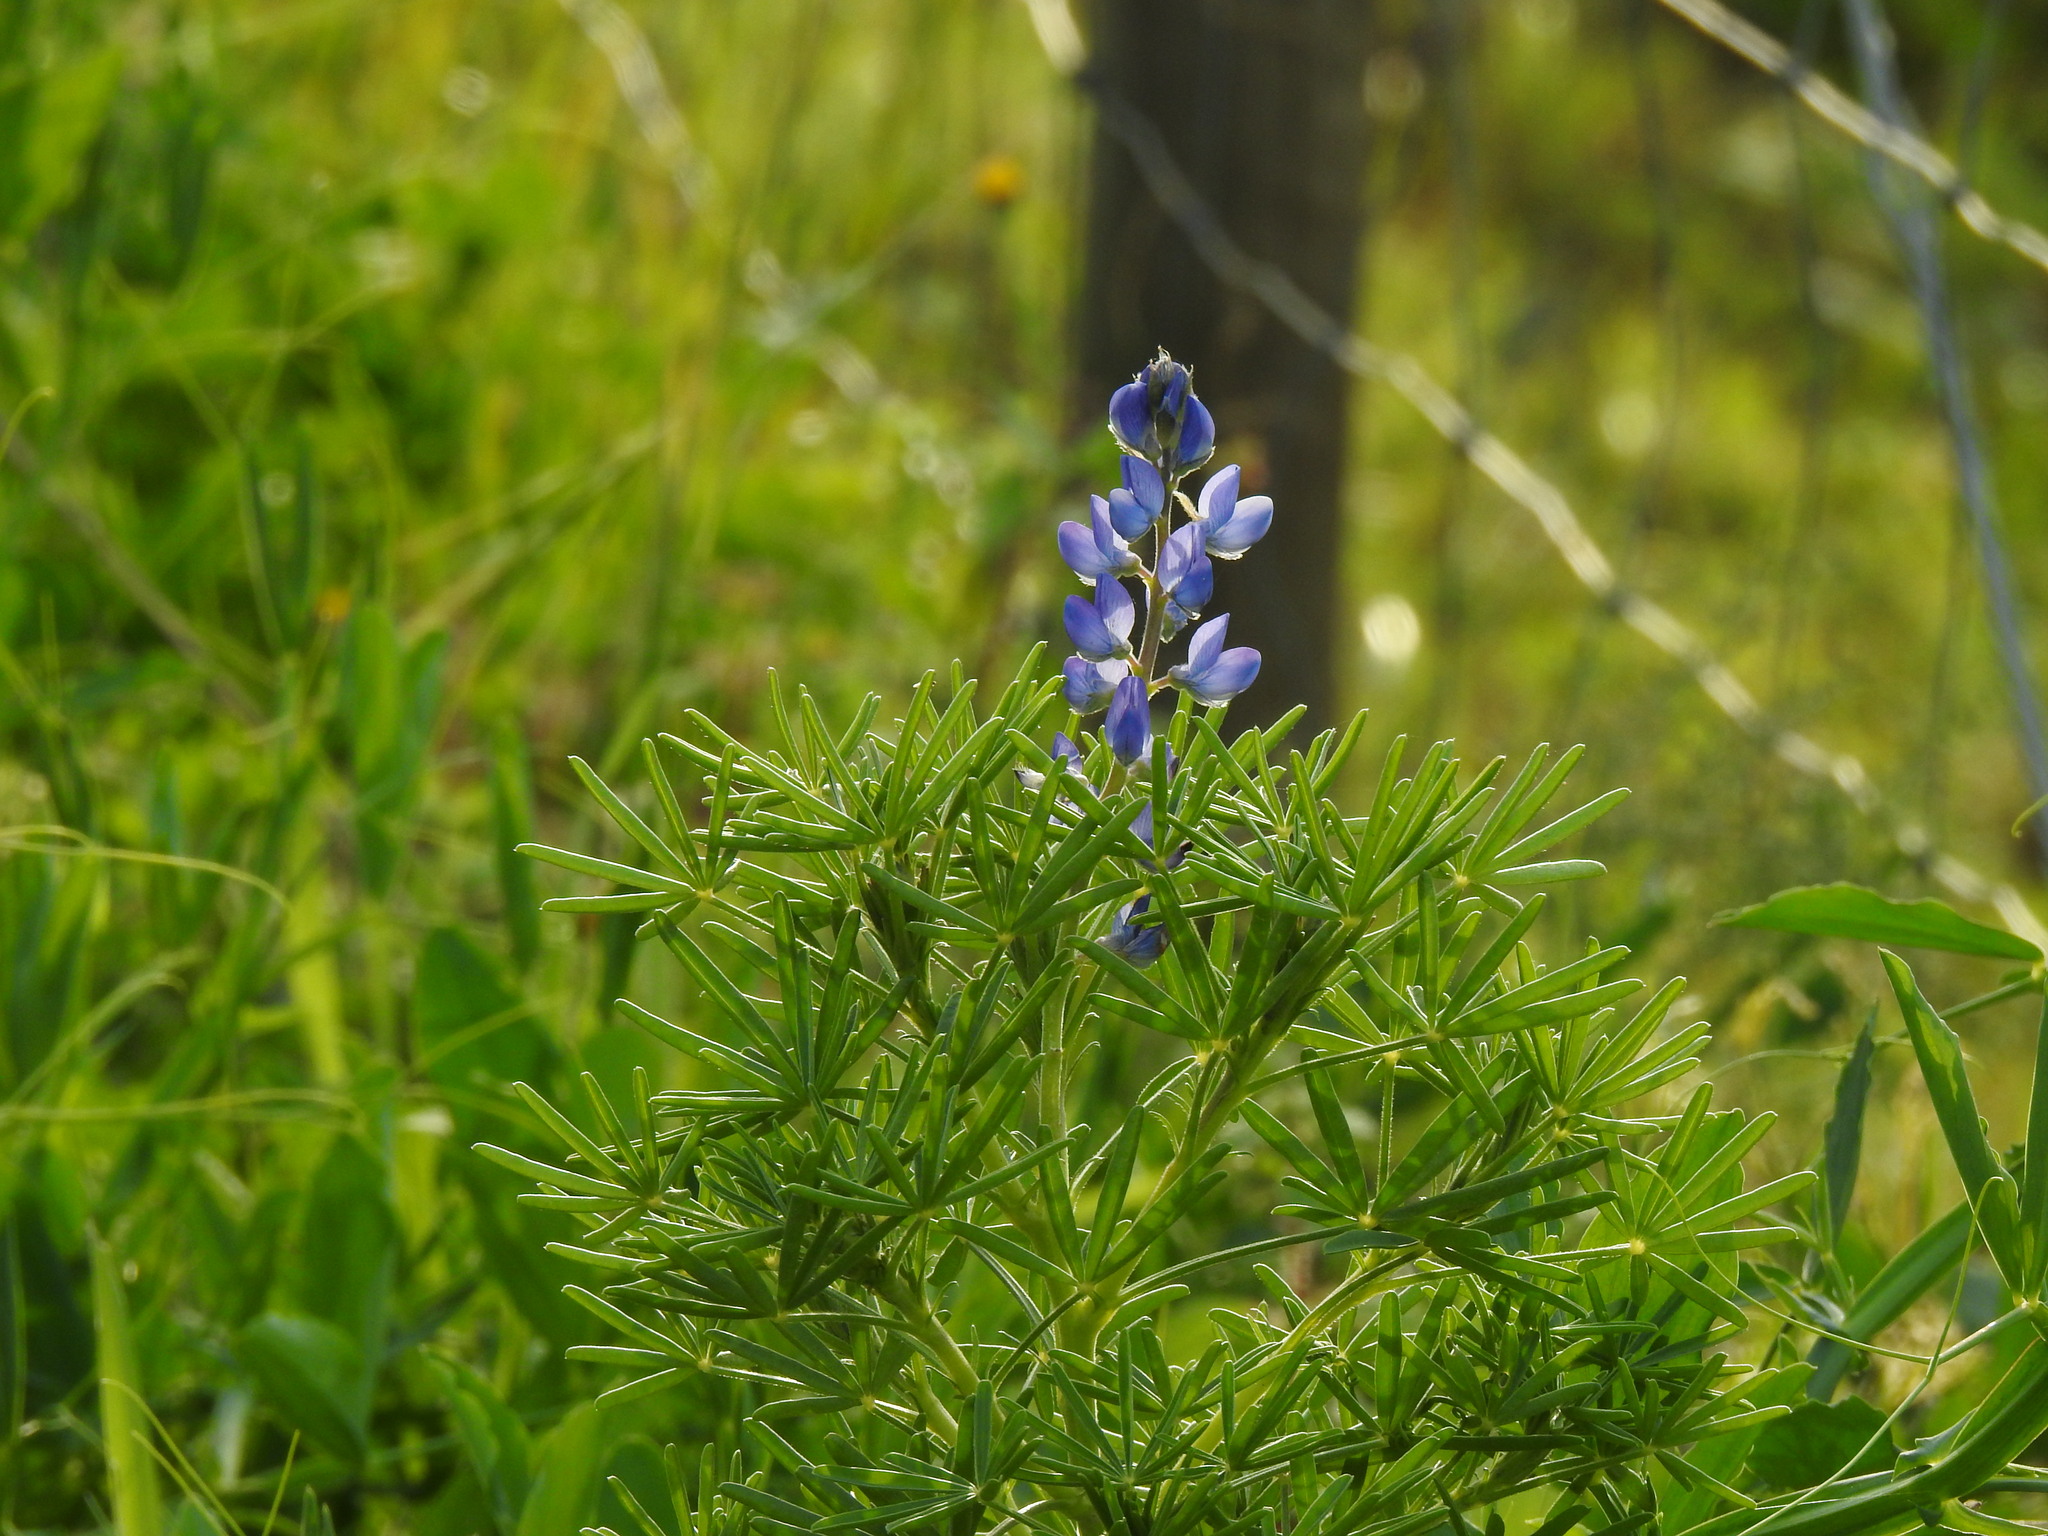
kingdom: Plantae
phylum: Tracheophyta
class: Magnoliopsida
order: Fabales
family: Fabaceae
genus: Lupinus
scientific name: Lupinus angustifolius
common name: Narrow-leaved lupin
